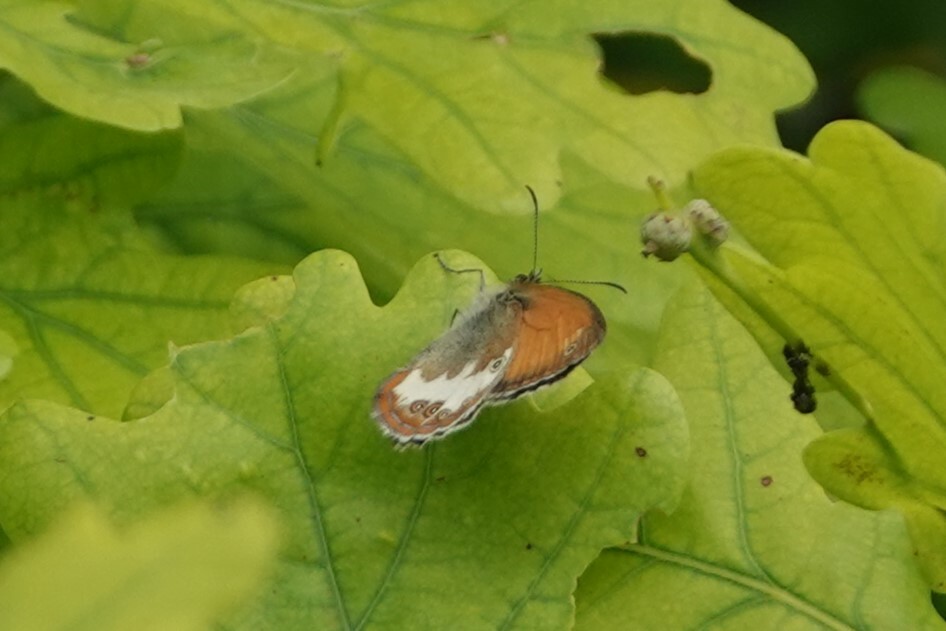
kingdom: Animalia
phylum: Arthropoda
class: Insecta
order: Lepidoptera
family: Nymphalidae
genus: Coenonympha
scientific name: Coenonympha arcania
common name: Pearly heath
